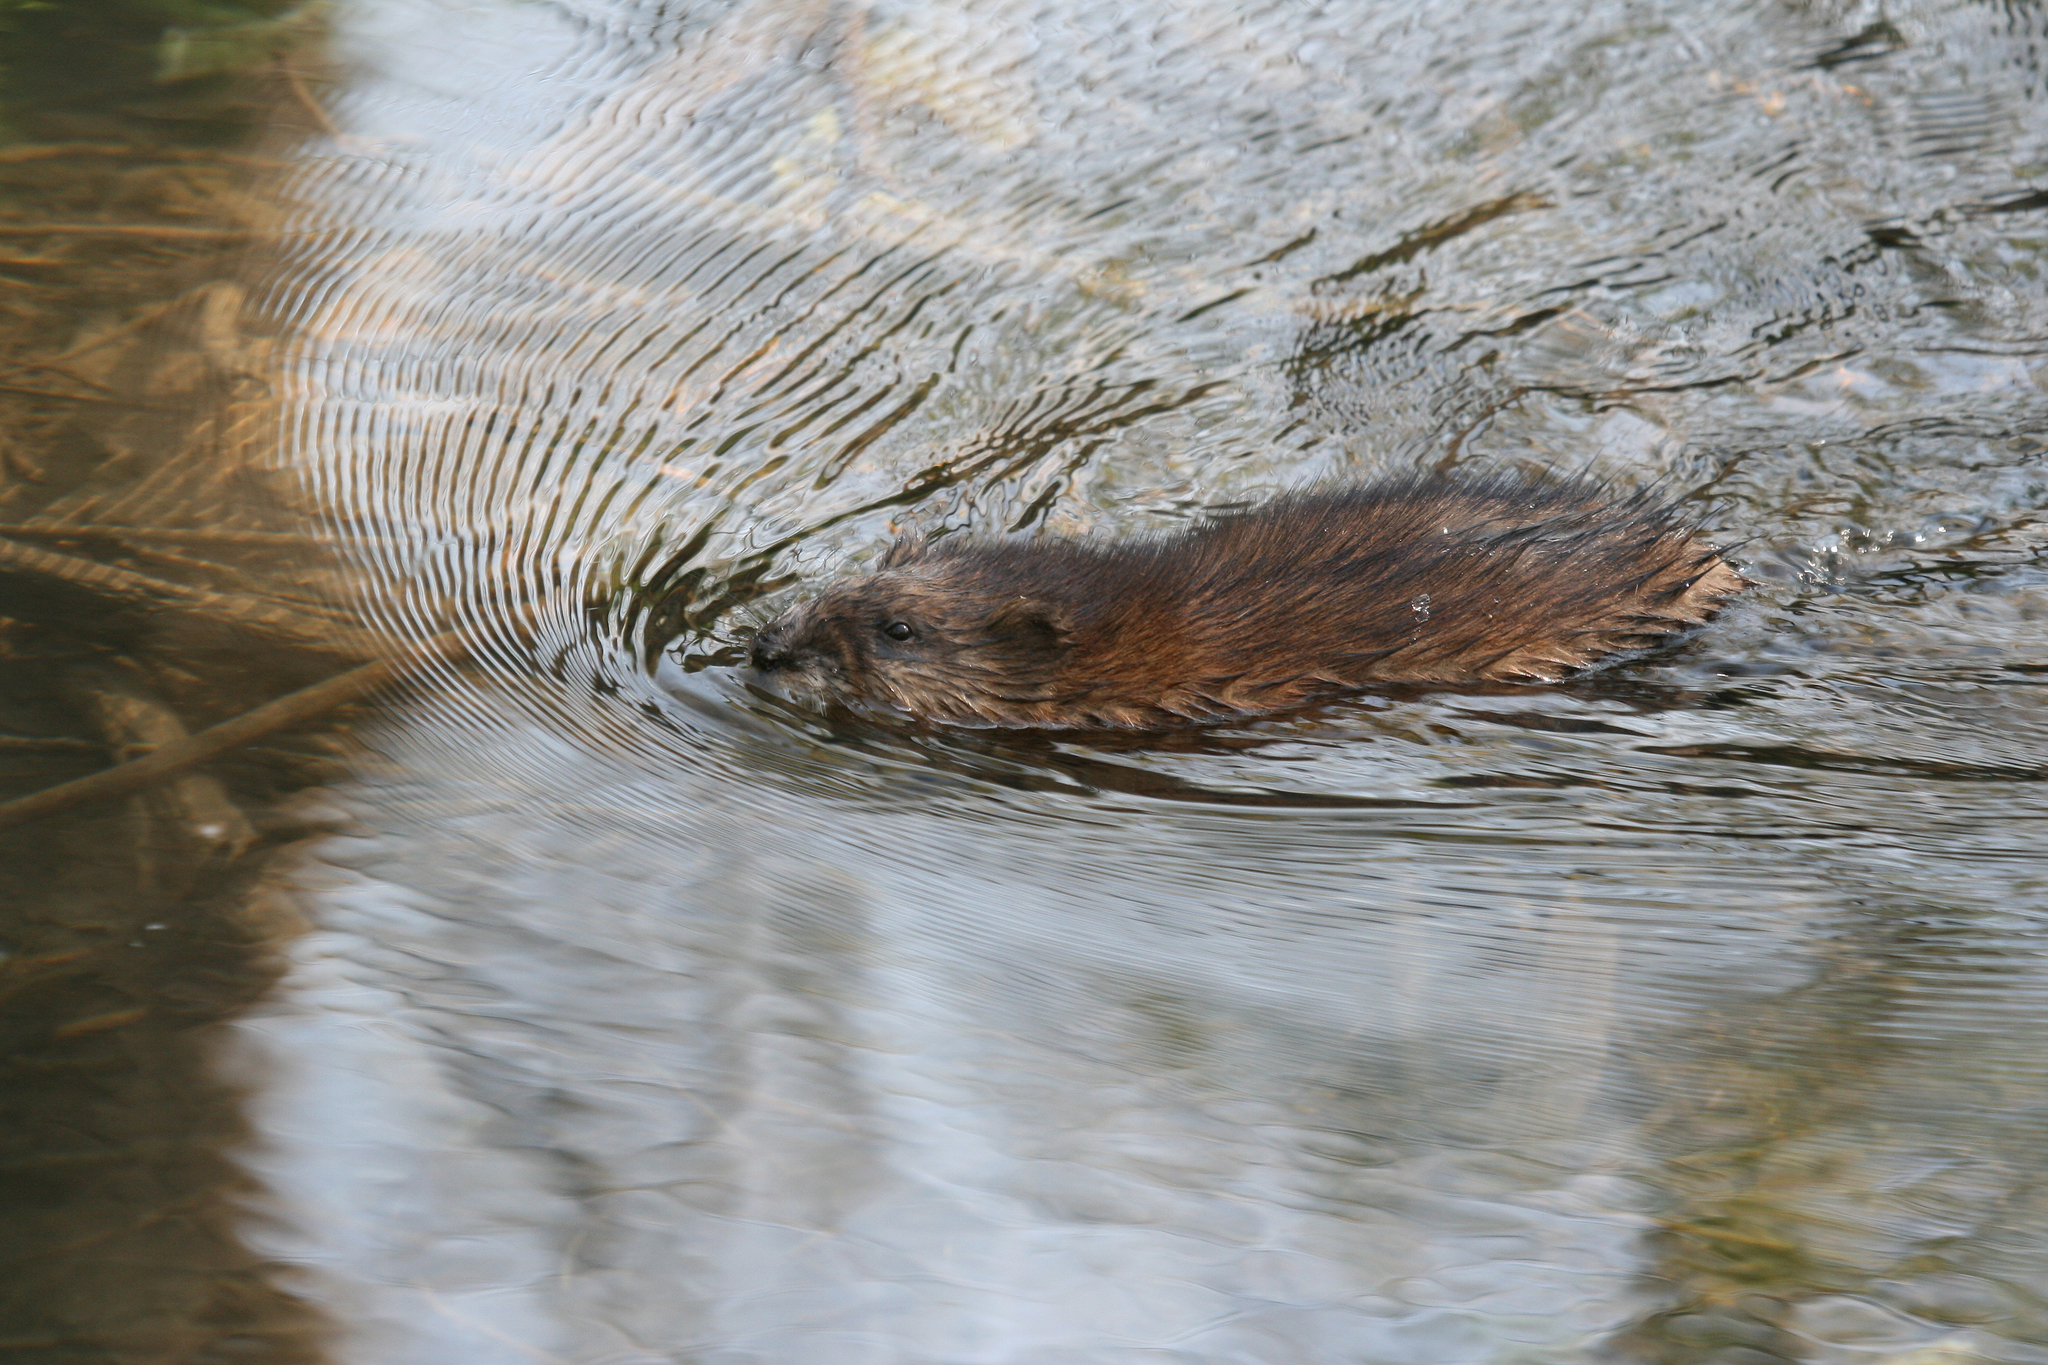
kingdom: Animalia
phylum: Chordata
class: Mammalia
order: Rodentia
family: Cricetidae
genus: Ondatra
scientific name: Ondatra zibethicus
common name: Muskrat
